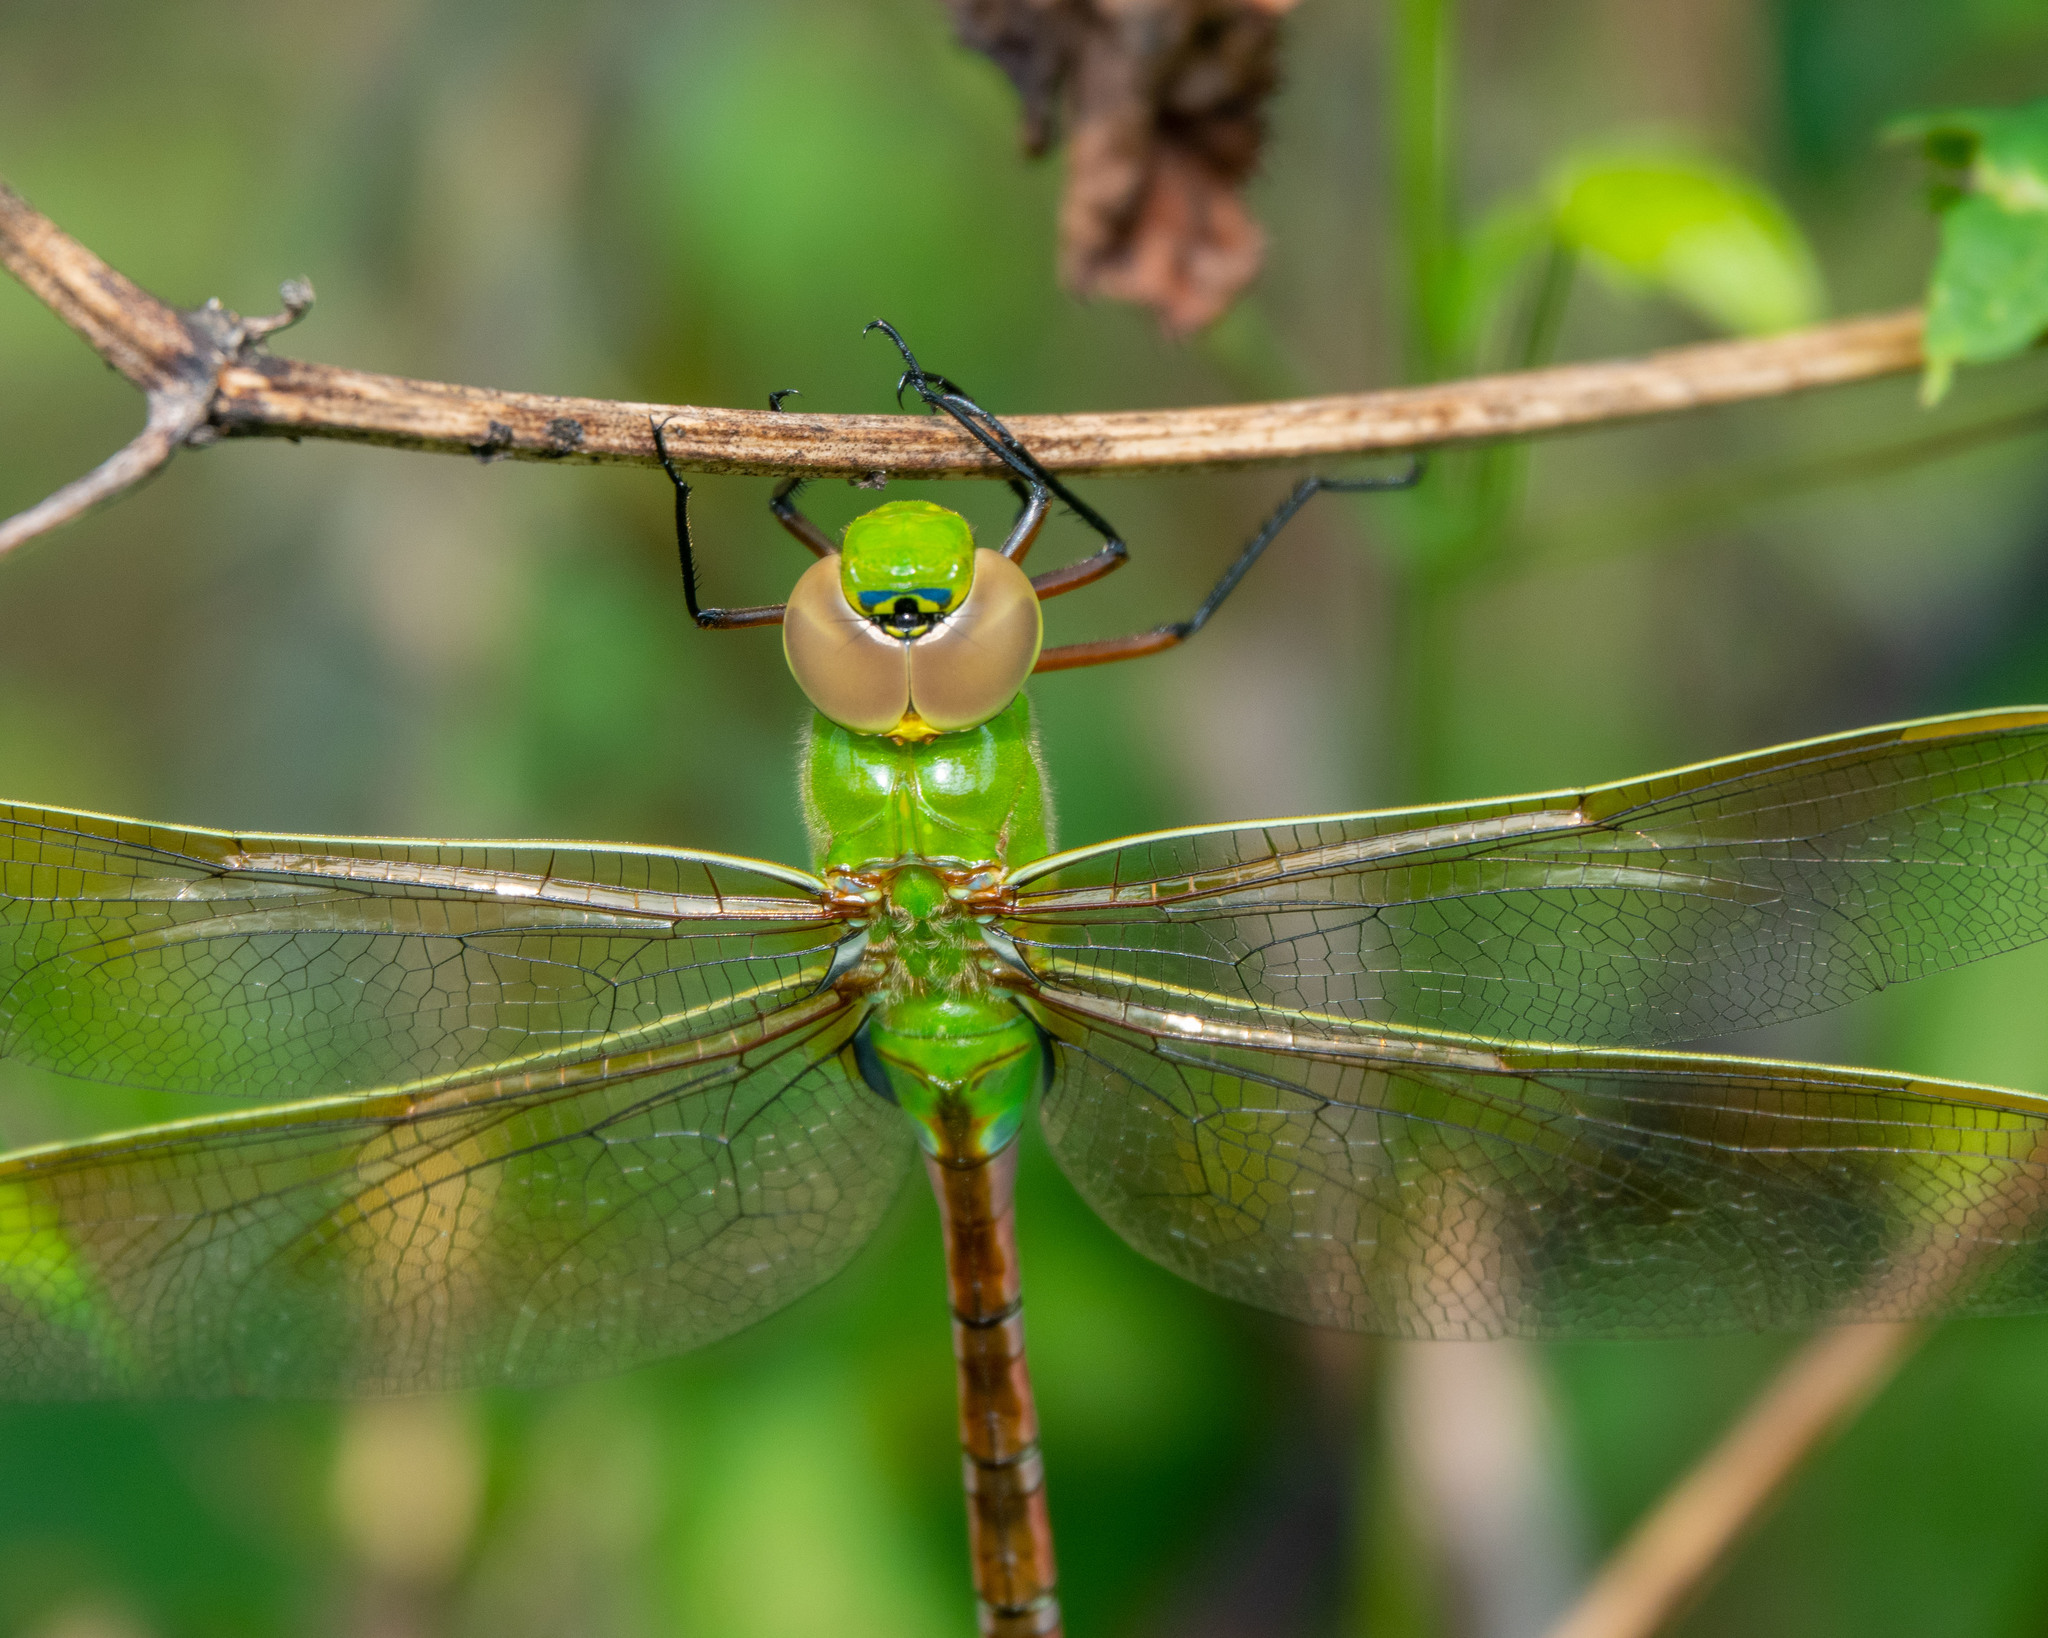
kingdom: Animalia
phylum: Arthropoda
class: Insecta
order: Odonata
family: Aeshnidae
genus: Anax
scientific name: Anax junius
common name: Common green darner
